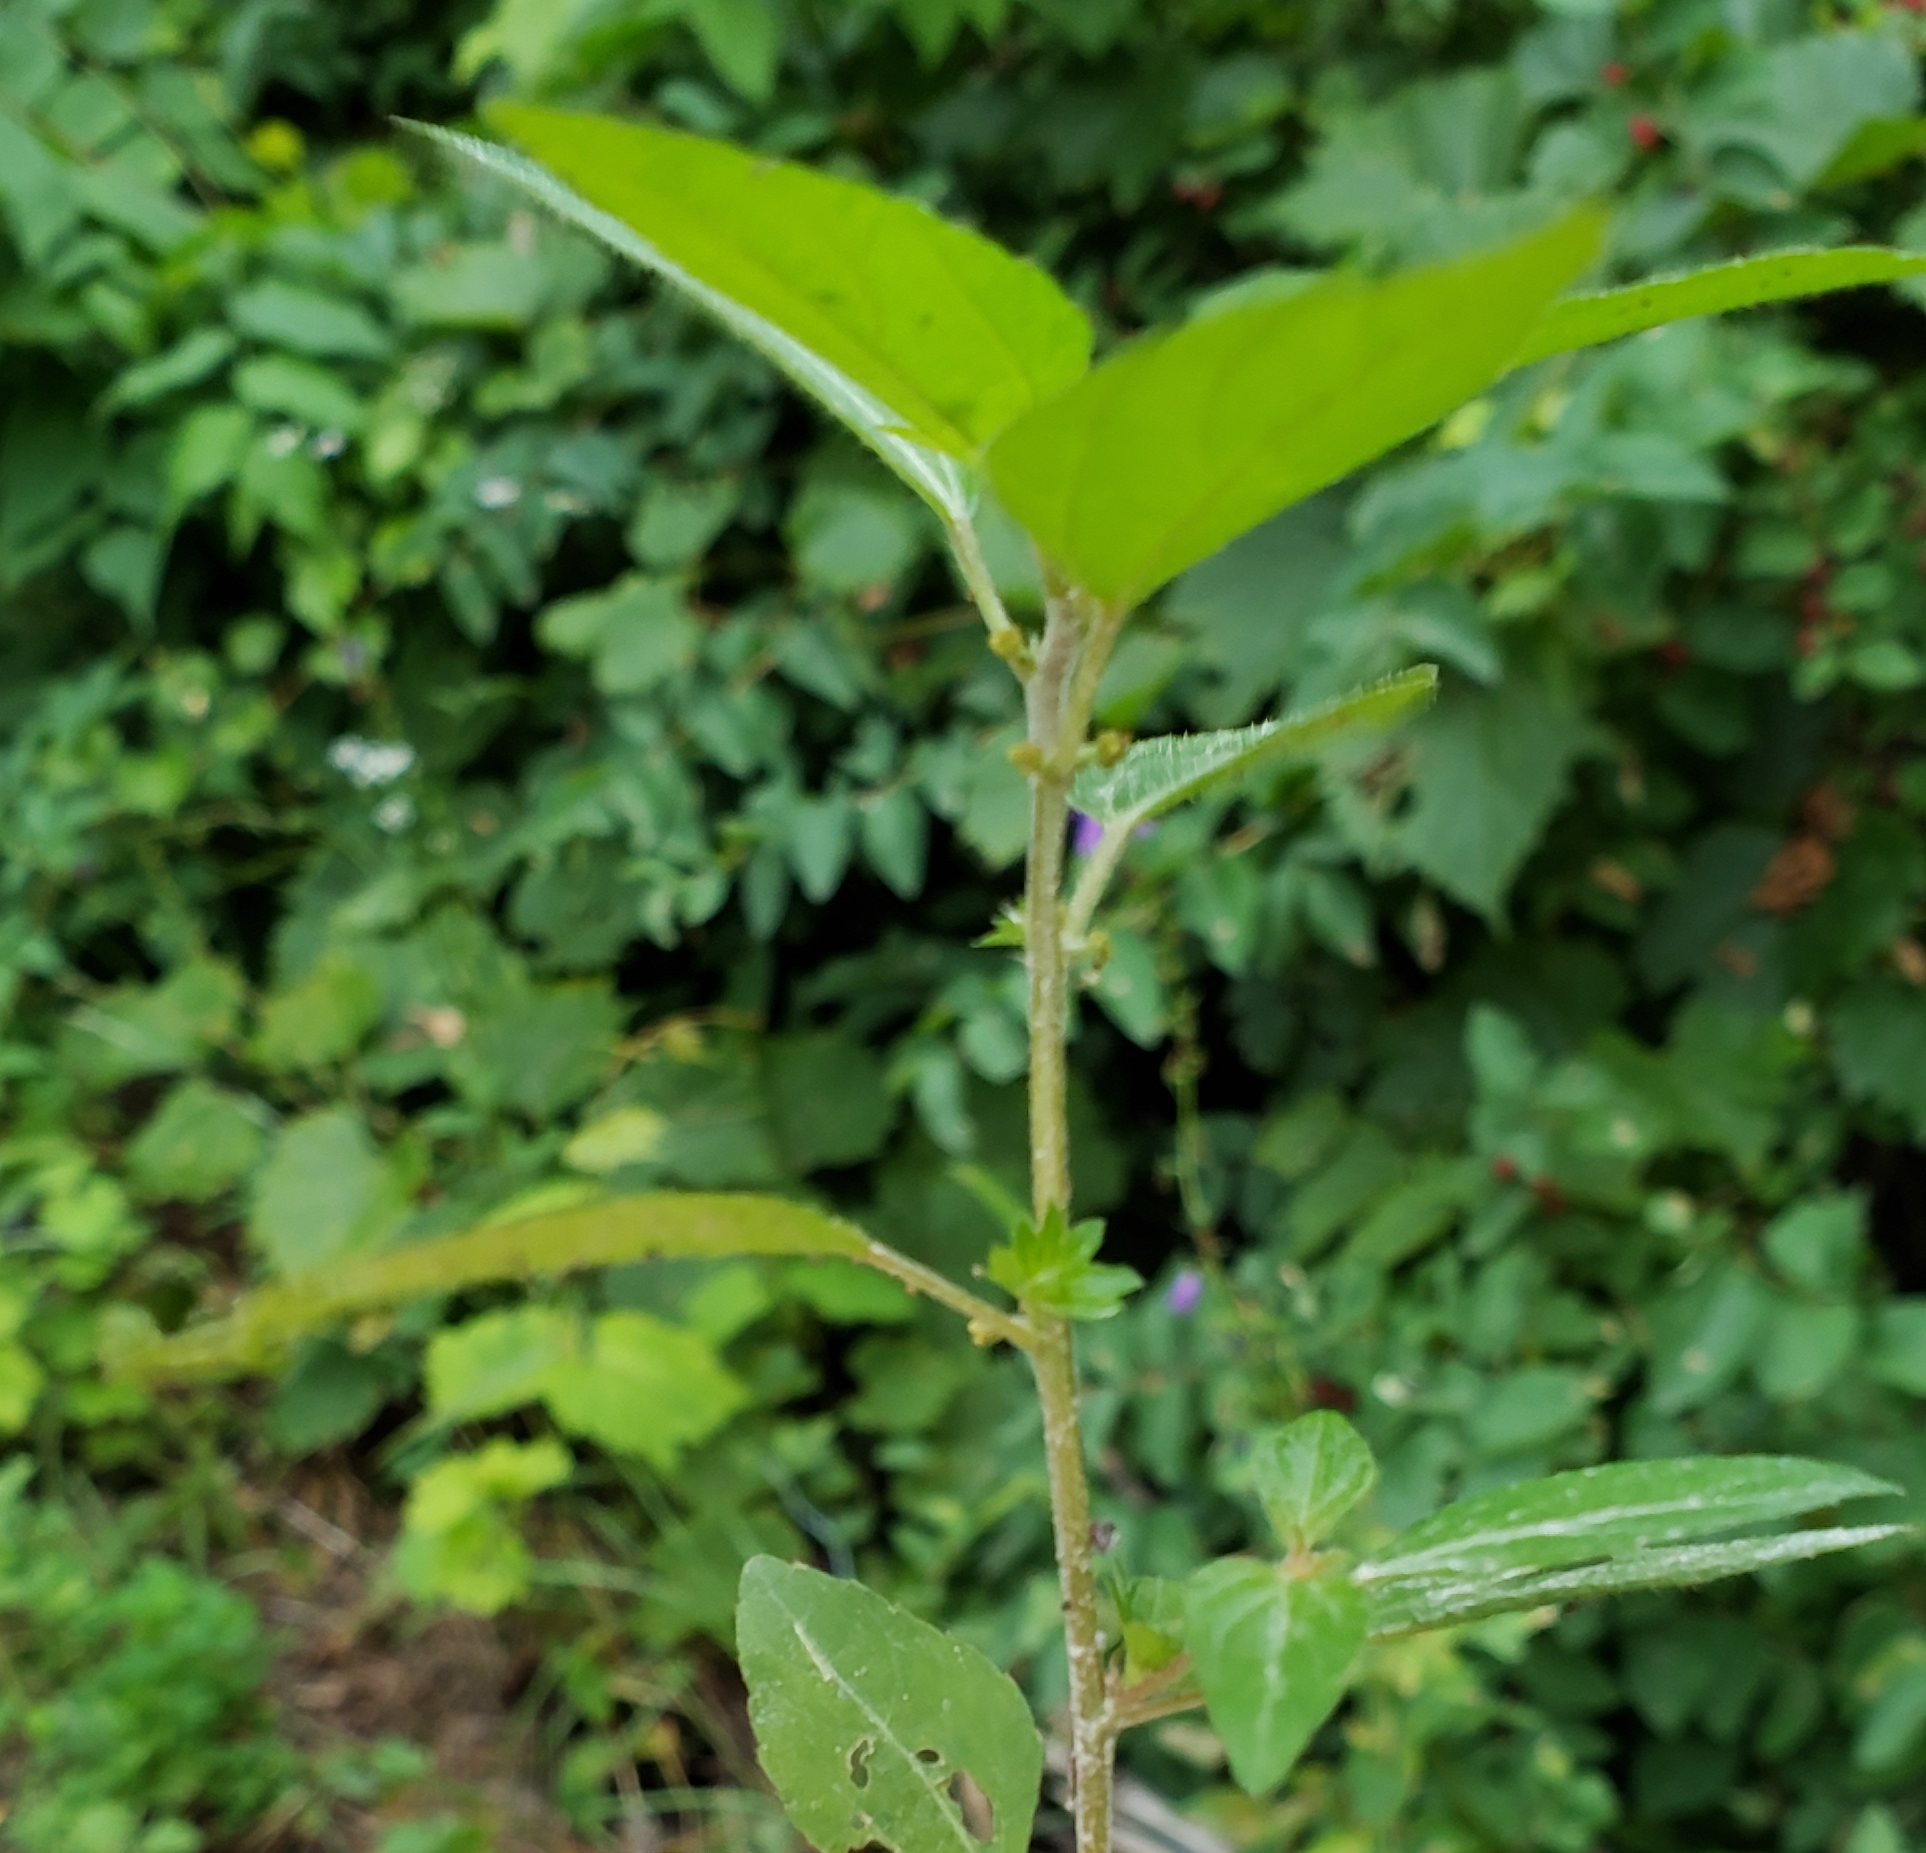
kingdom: Plantae
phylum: Tracheophyta
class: Magnoliopsida
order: Malpighiales
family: Euphorbiaceae
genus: Acalypha
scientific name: Acalypha rhomboidea
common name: Rhombic copperleaf
